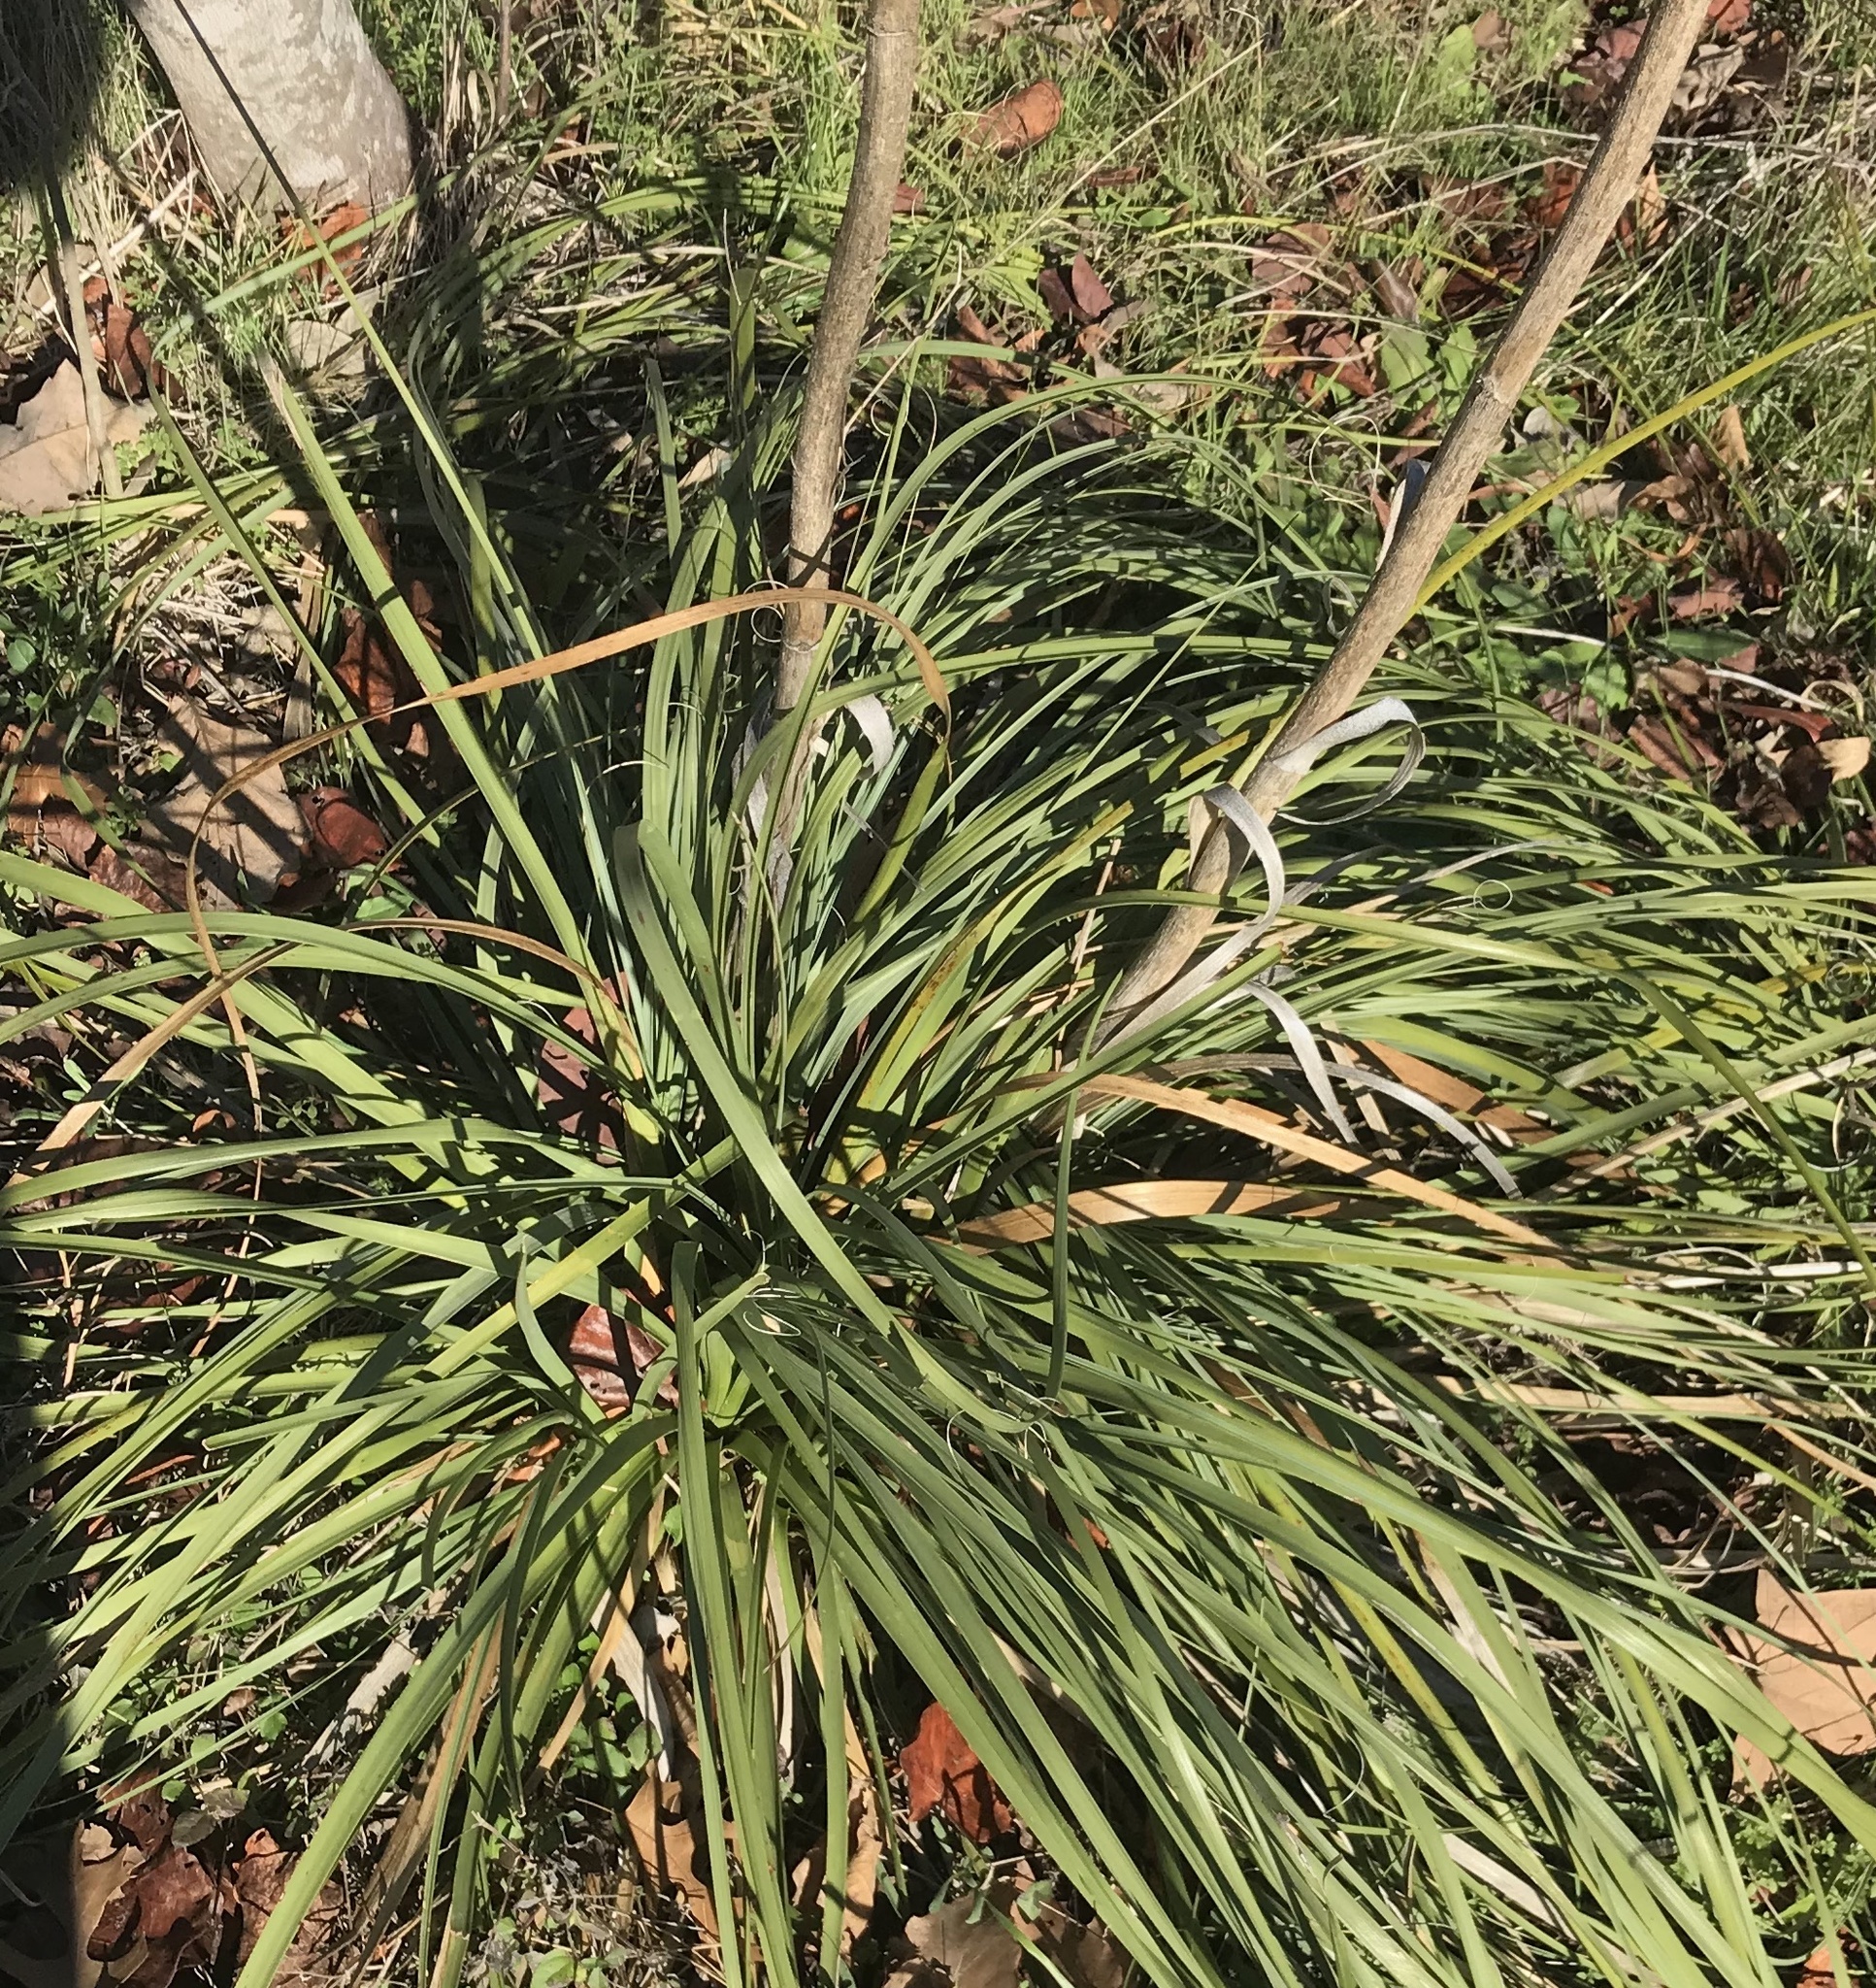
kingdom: Plantae
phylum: Tracheophyta
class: Liliopsida
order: Asparagales
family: Asparagaceae
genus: Nolina
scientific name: Nolina lindheimeriana
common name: Lindheimer's bear-grass
